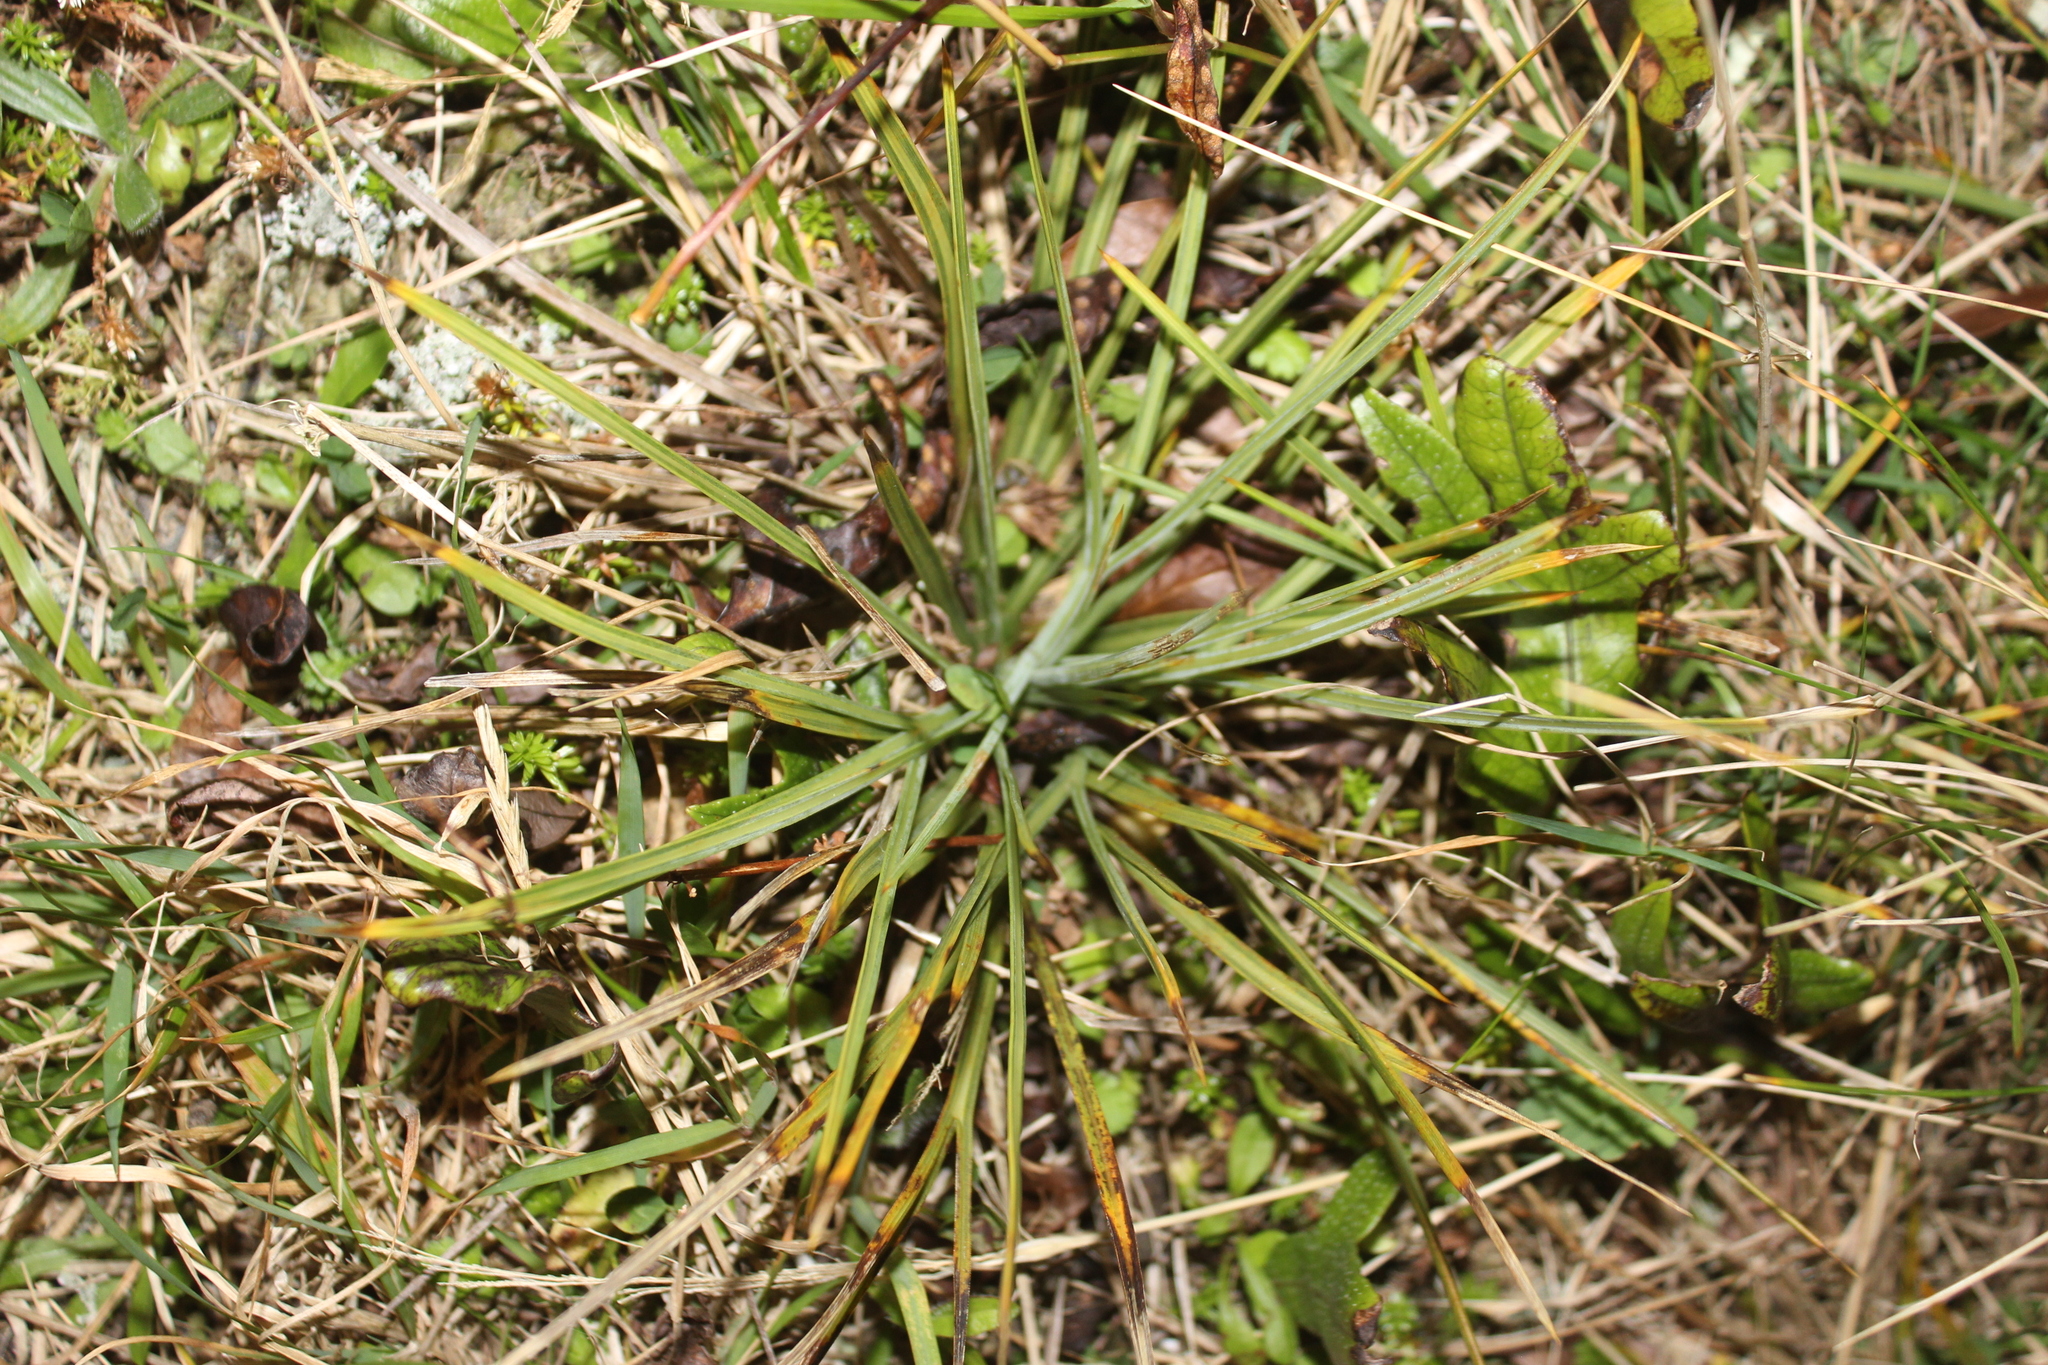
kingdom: Plantae
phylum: Tracheophyta
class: Magnoliopsida
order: Apiales
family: Apiaceae
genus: Aciphylla
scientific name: Aciphylla squarrosa
